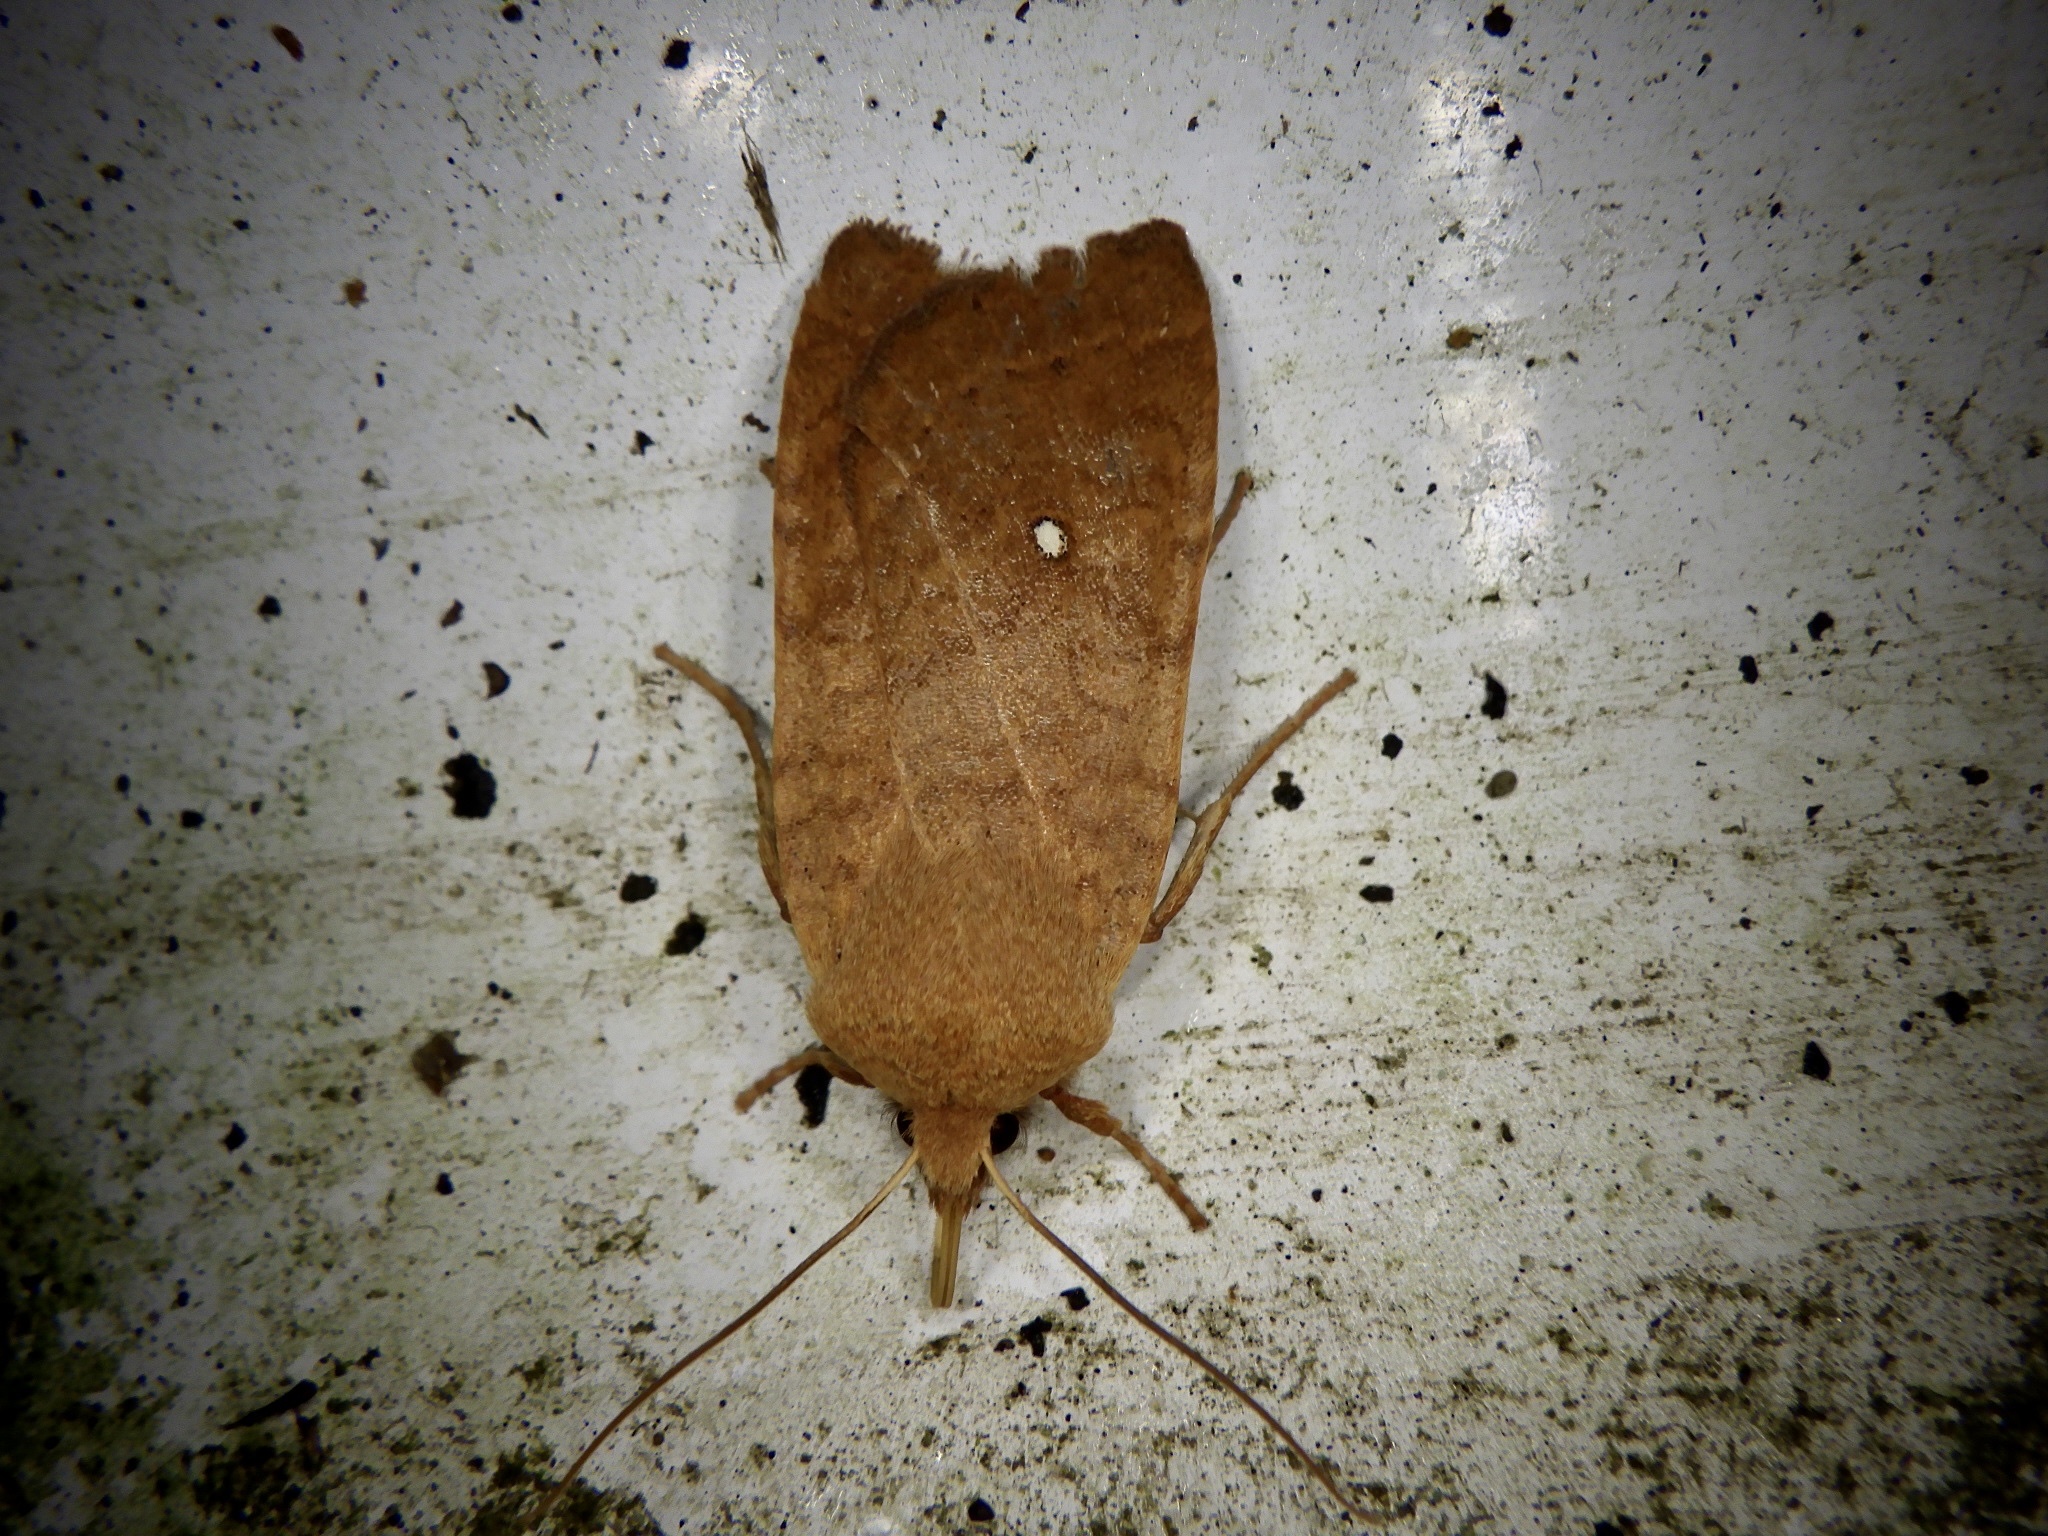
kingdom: Animalia
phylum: Arthropoda
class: Insecta
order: Lepidoptera
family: Noctuidae
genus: Conistra
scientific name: Conistra albipuncta
